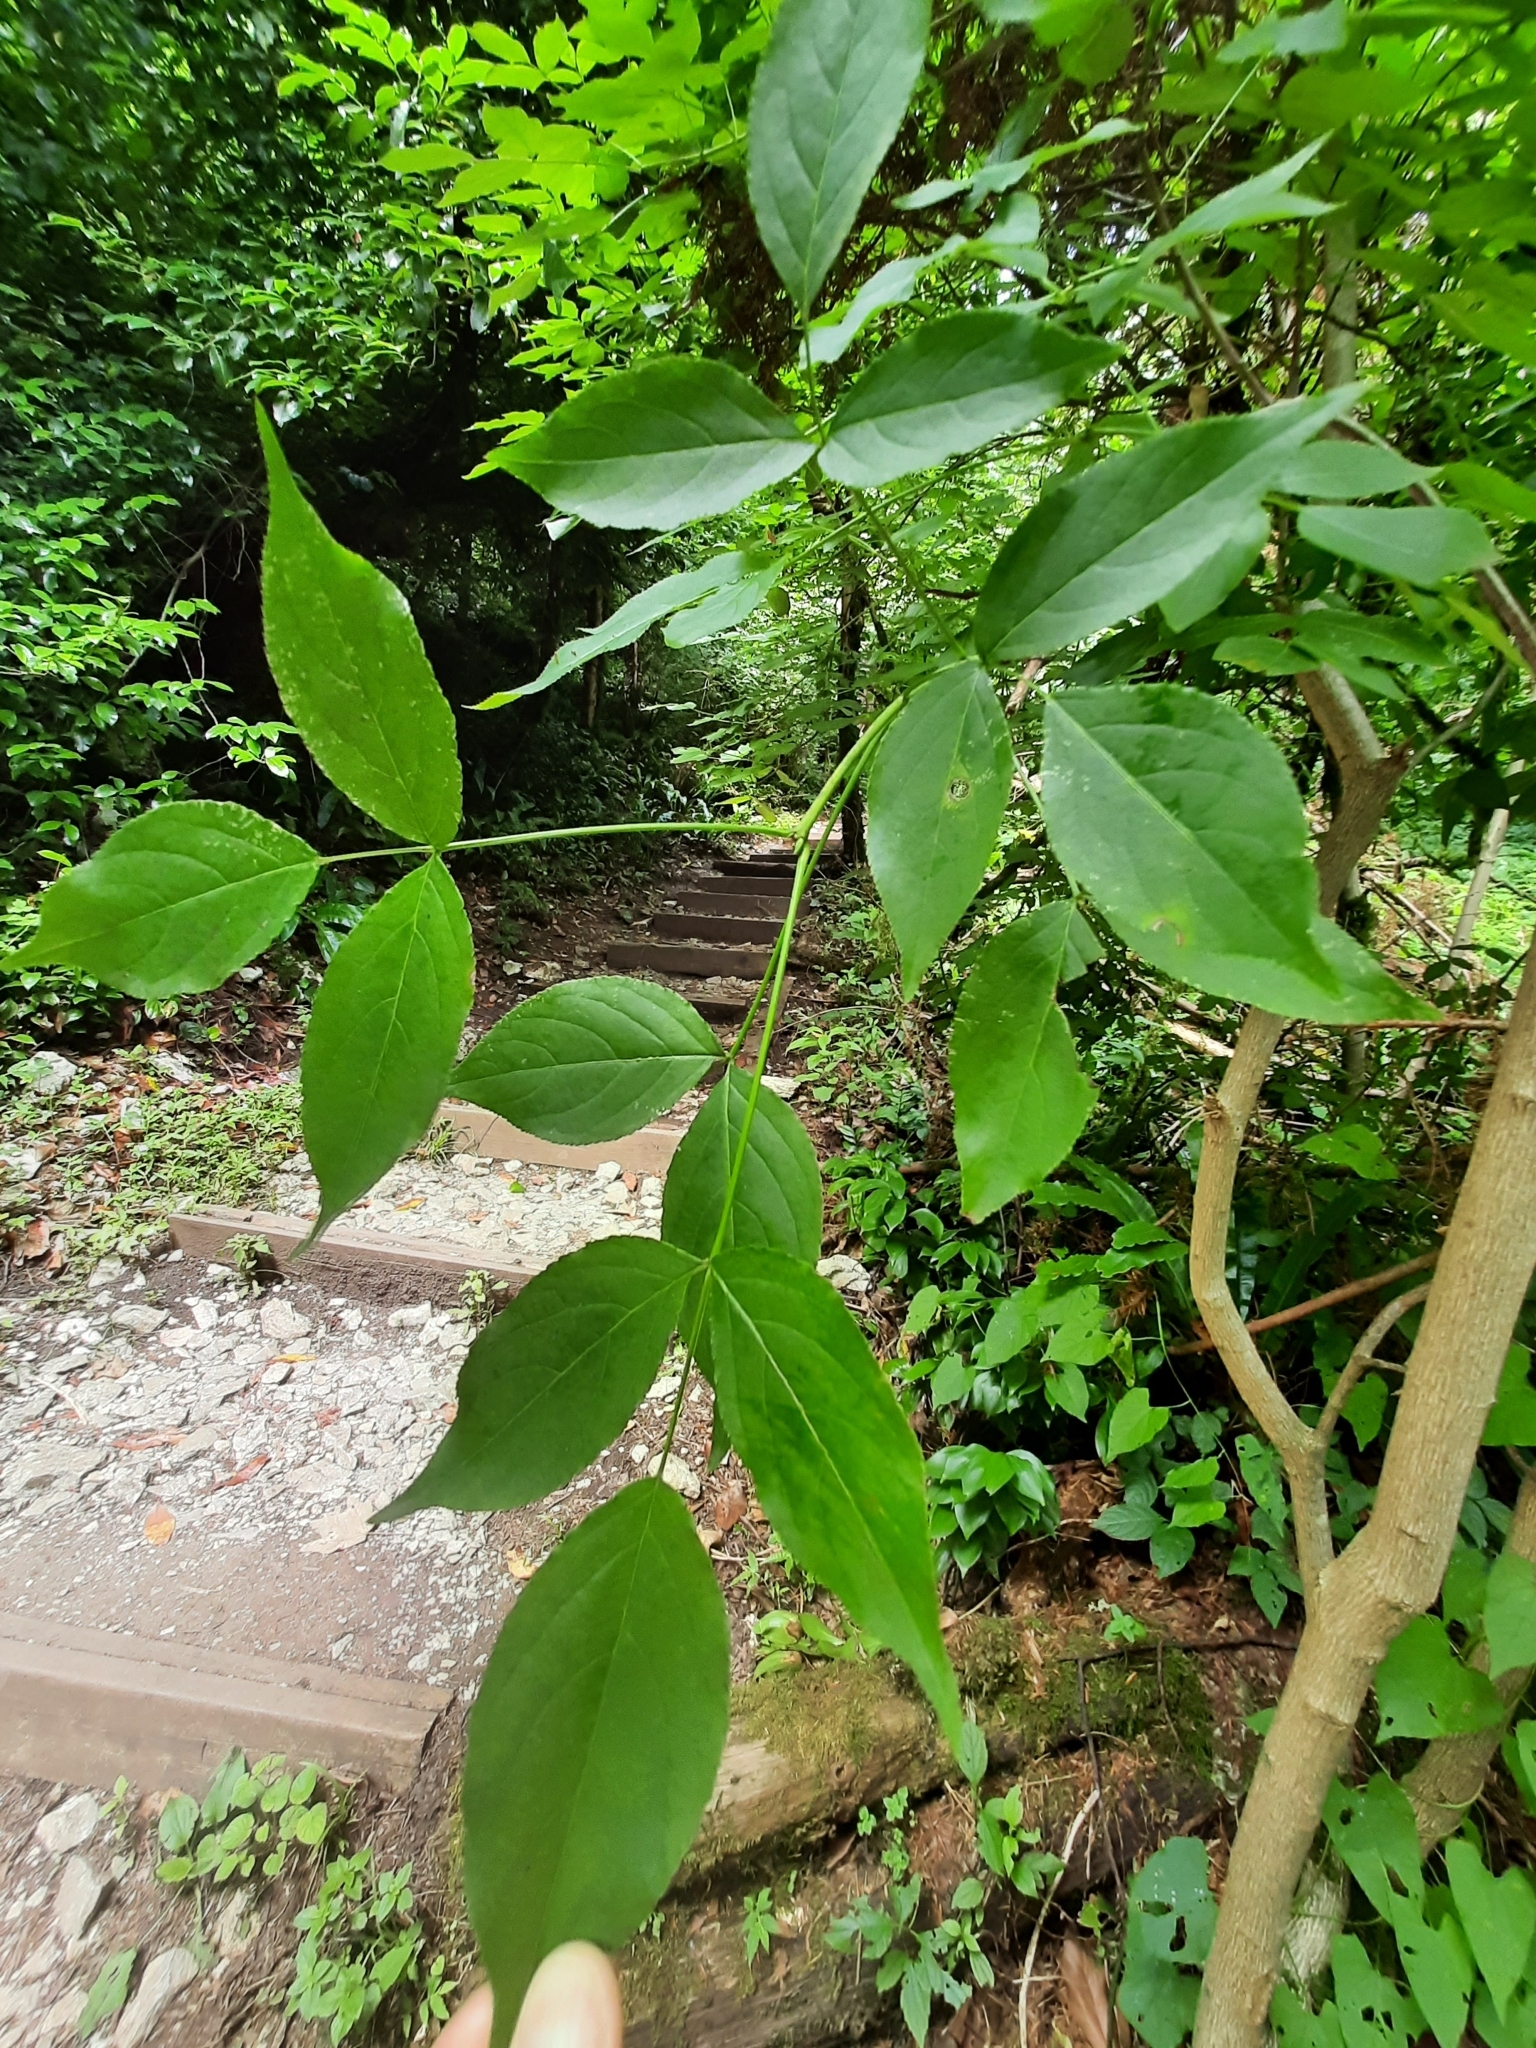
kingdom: Plantae
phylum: Tracheophyta
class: Magnoliopsida
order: Crossosomatales
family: Staphyleaceae
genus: Staphylea
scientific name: Staphylea colchica
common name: Caucasian bladdernut
